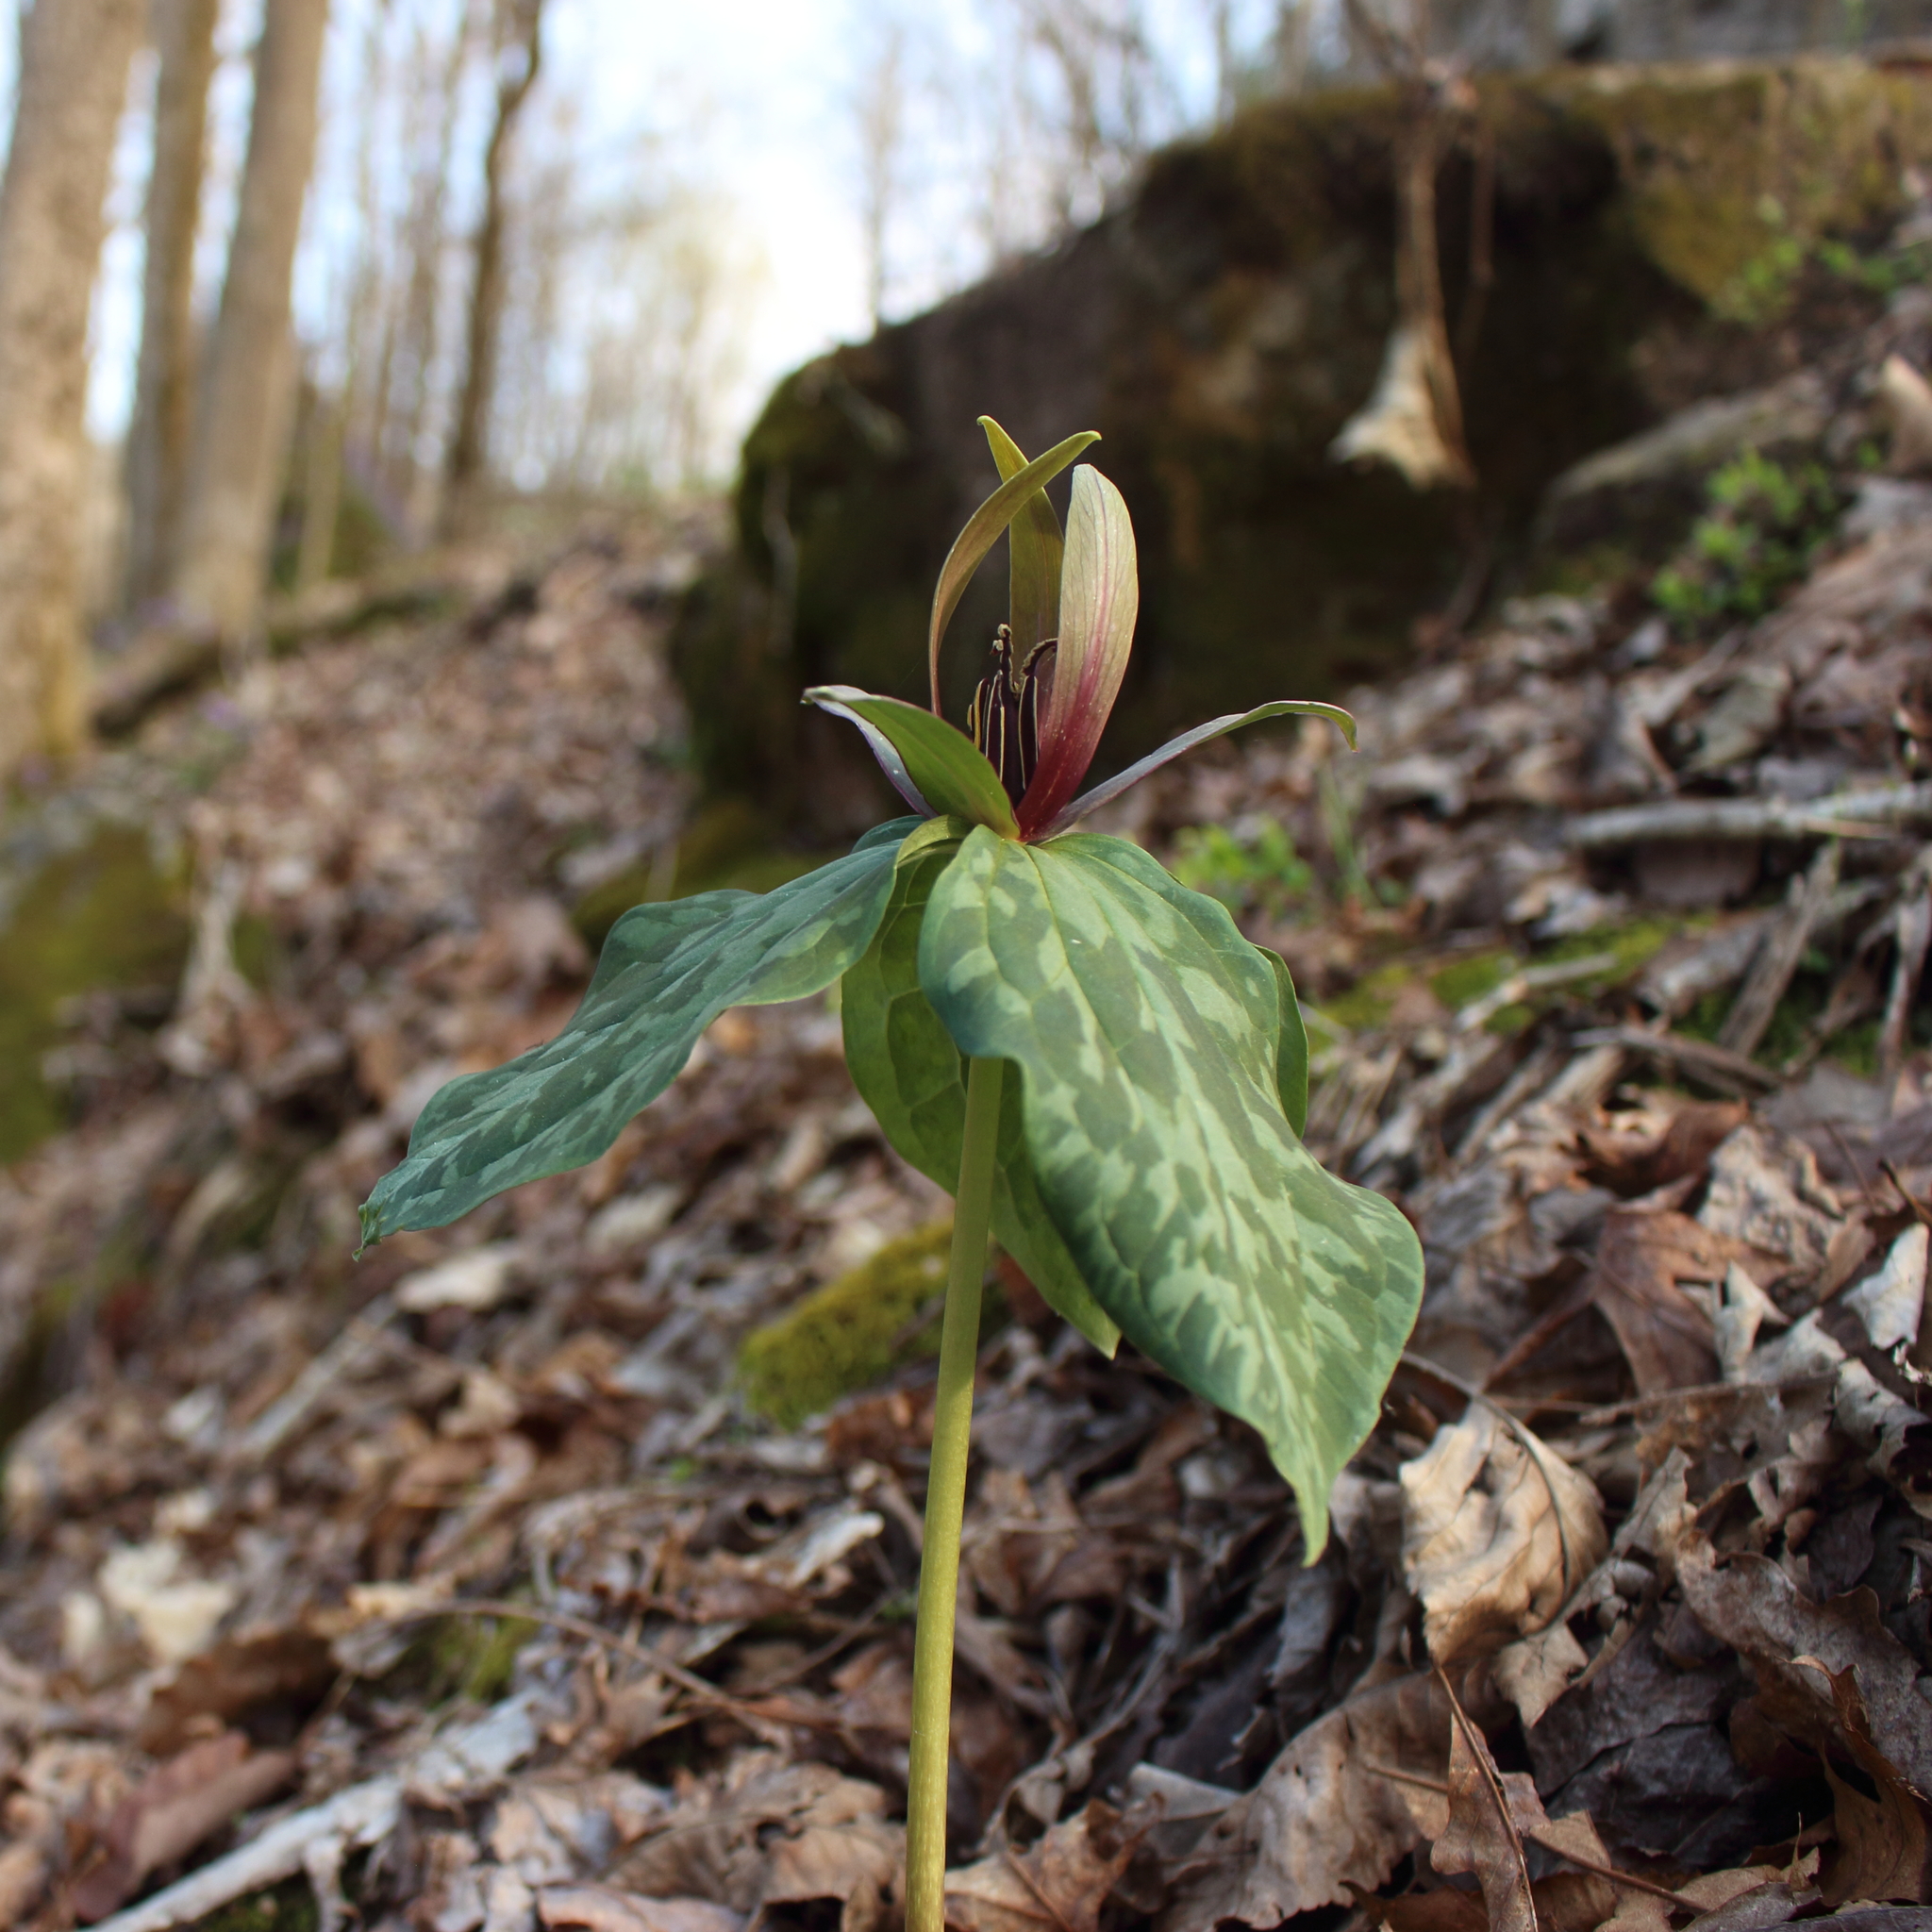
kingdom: Plantae
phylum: Tracheophyta
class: Liliopsida
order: Liliales
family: Melanthiaceae
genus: Trillium
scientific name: Trillium cuneatum
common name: Cuneate trillium
